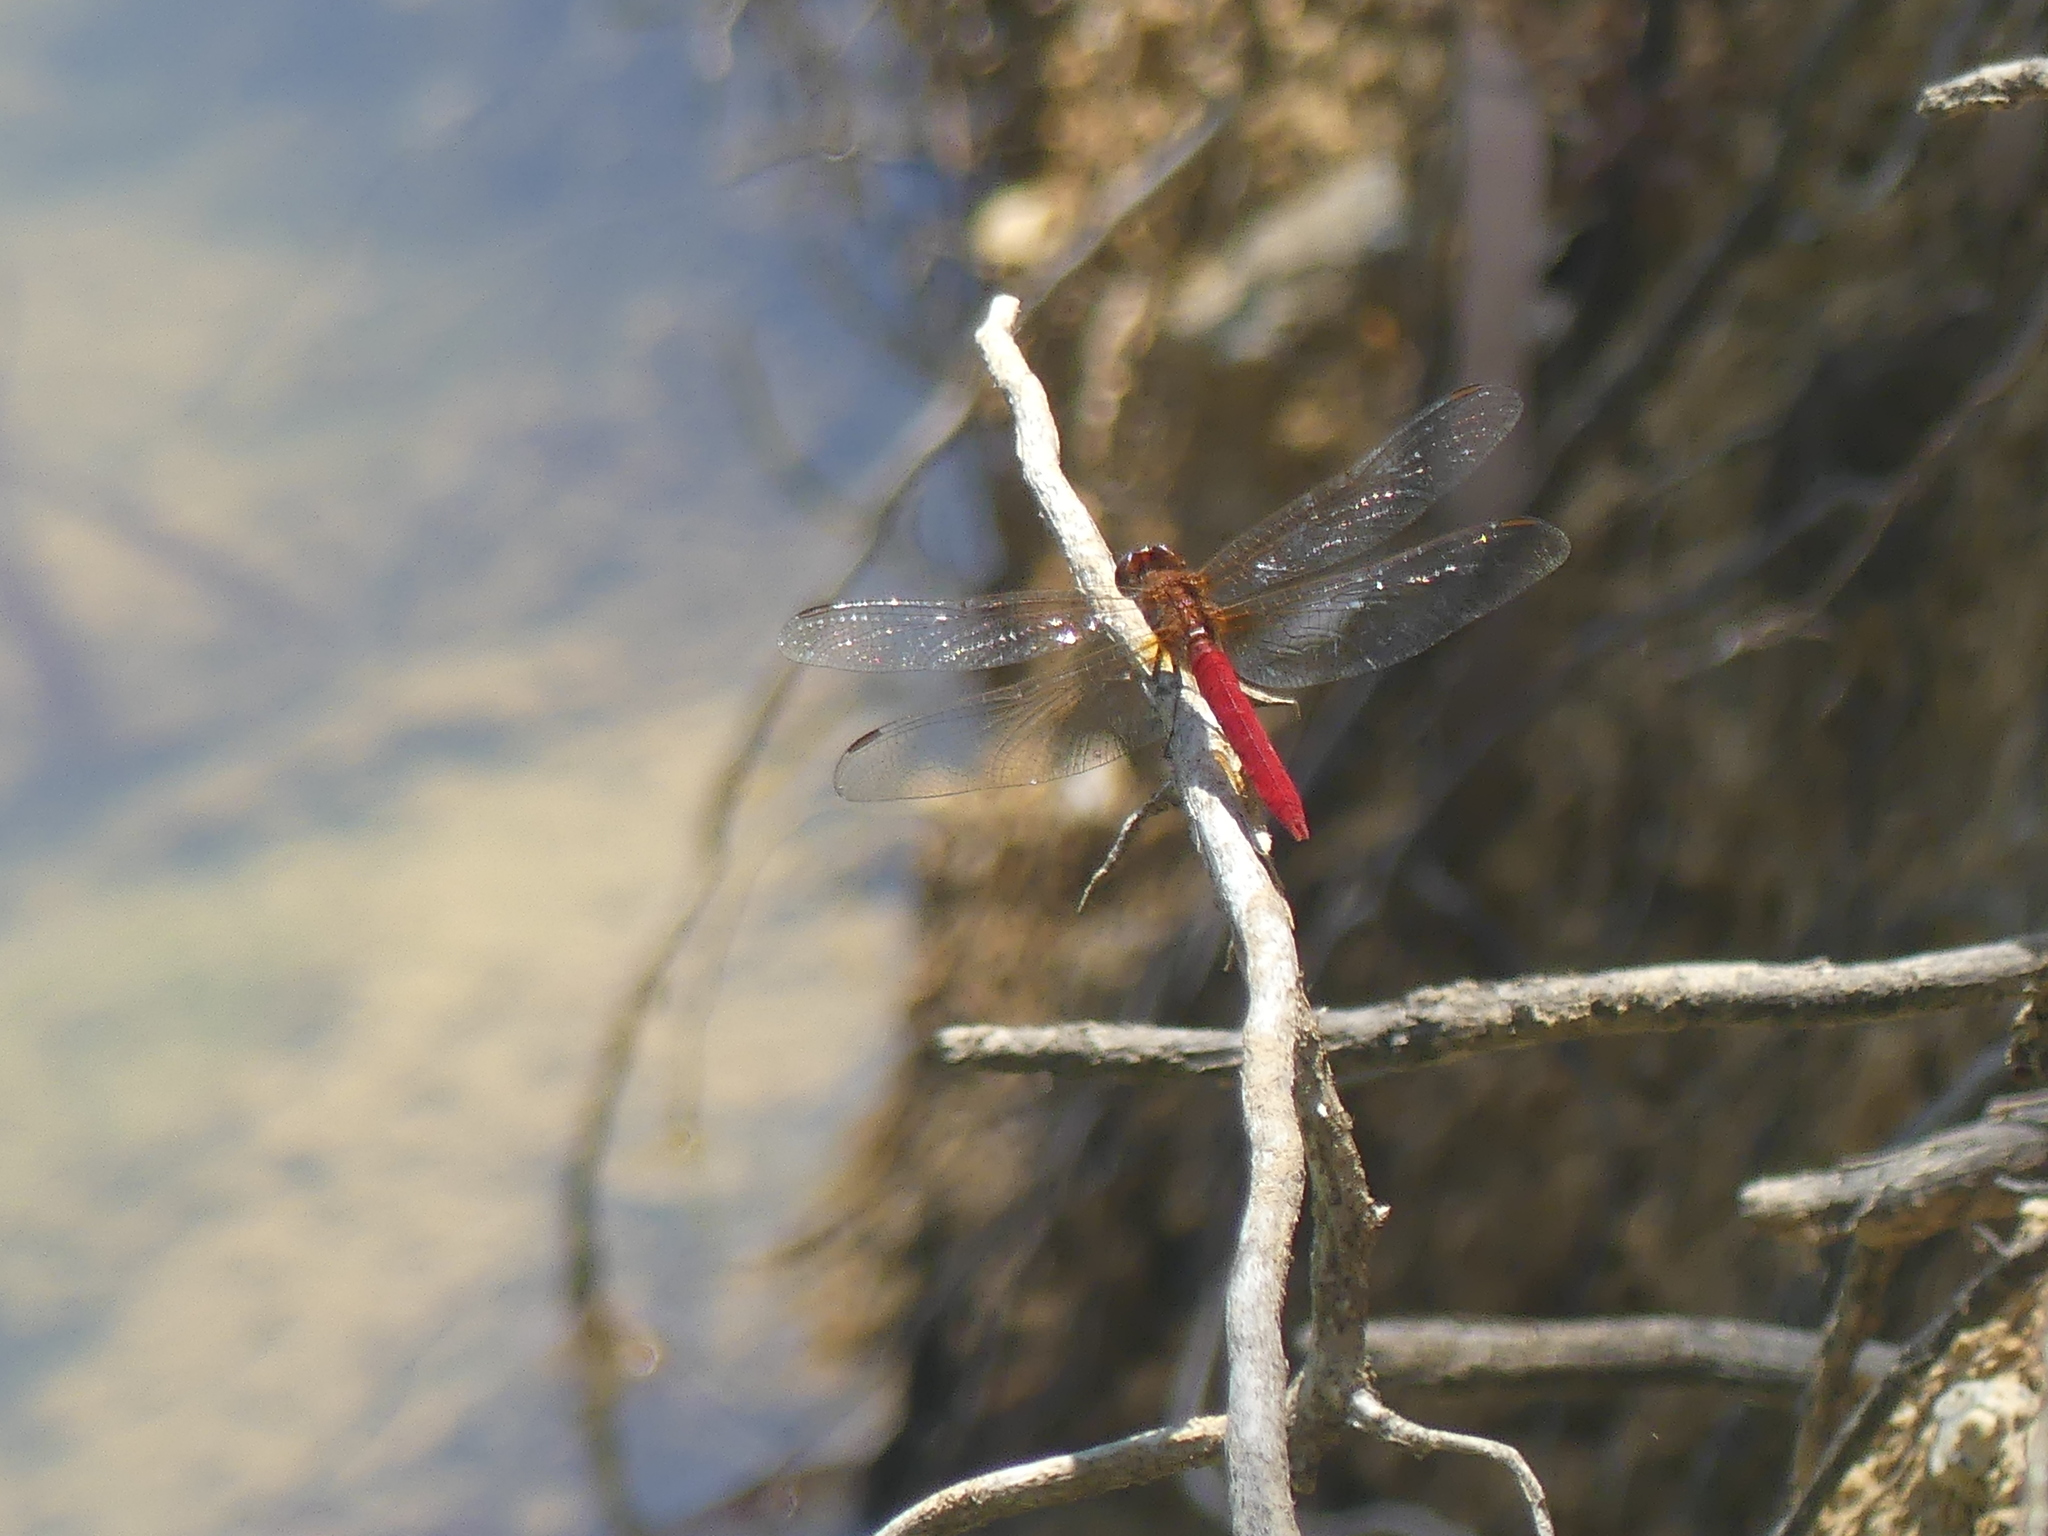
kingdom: Animalia
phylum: Arthropoda
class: Insecta
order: Odonata
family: Libellulidae
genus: Rhodothemis
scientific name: Rhodothemis lieftincki
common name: Red arrow
